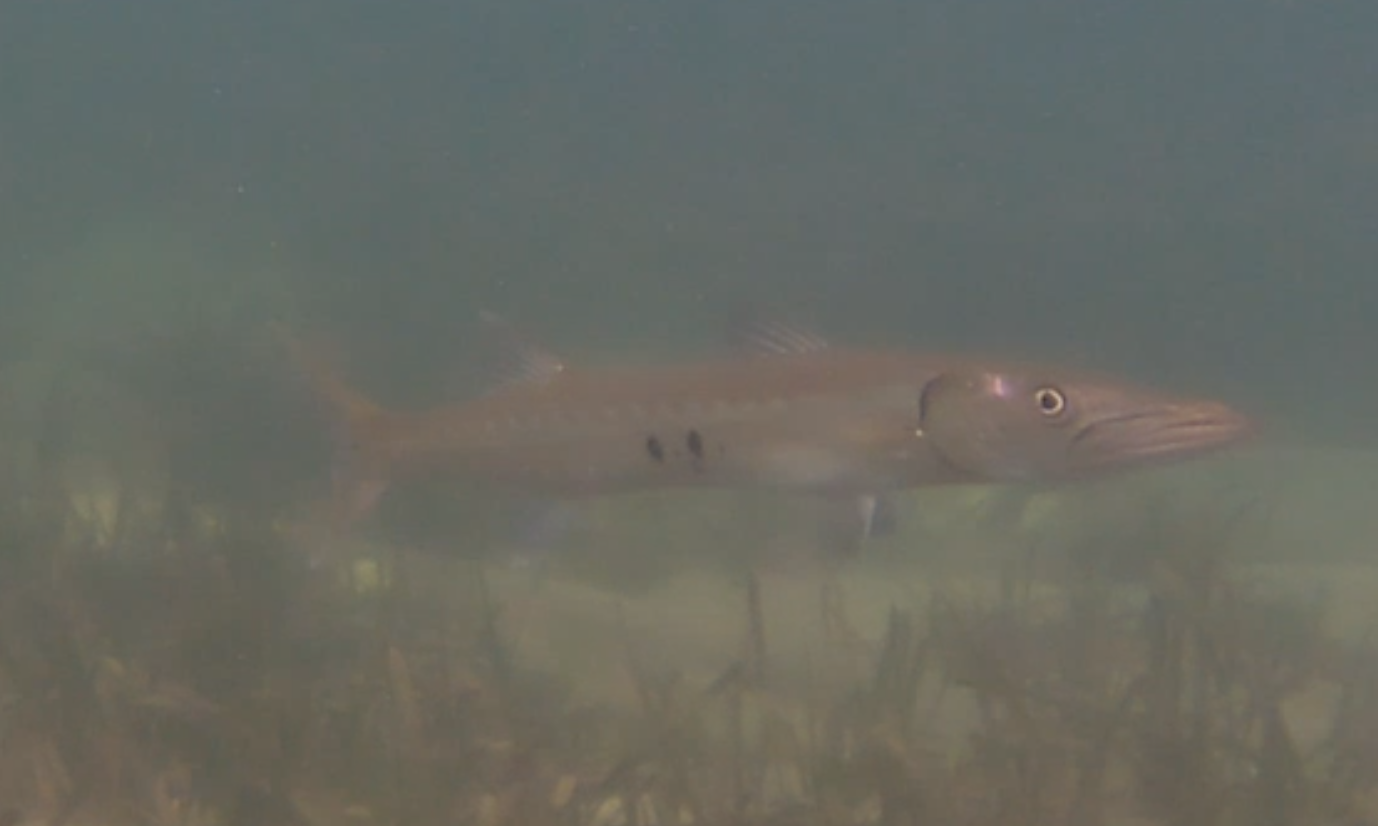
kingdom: Animalia
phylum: Chordata
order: Perciformes
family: Sphyraenidae
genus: Sphyraena
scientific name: Sphyraena barracuda
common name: Great barracuda
